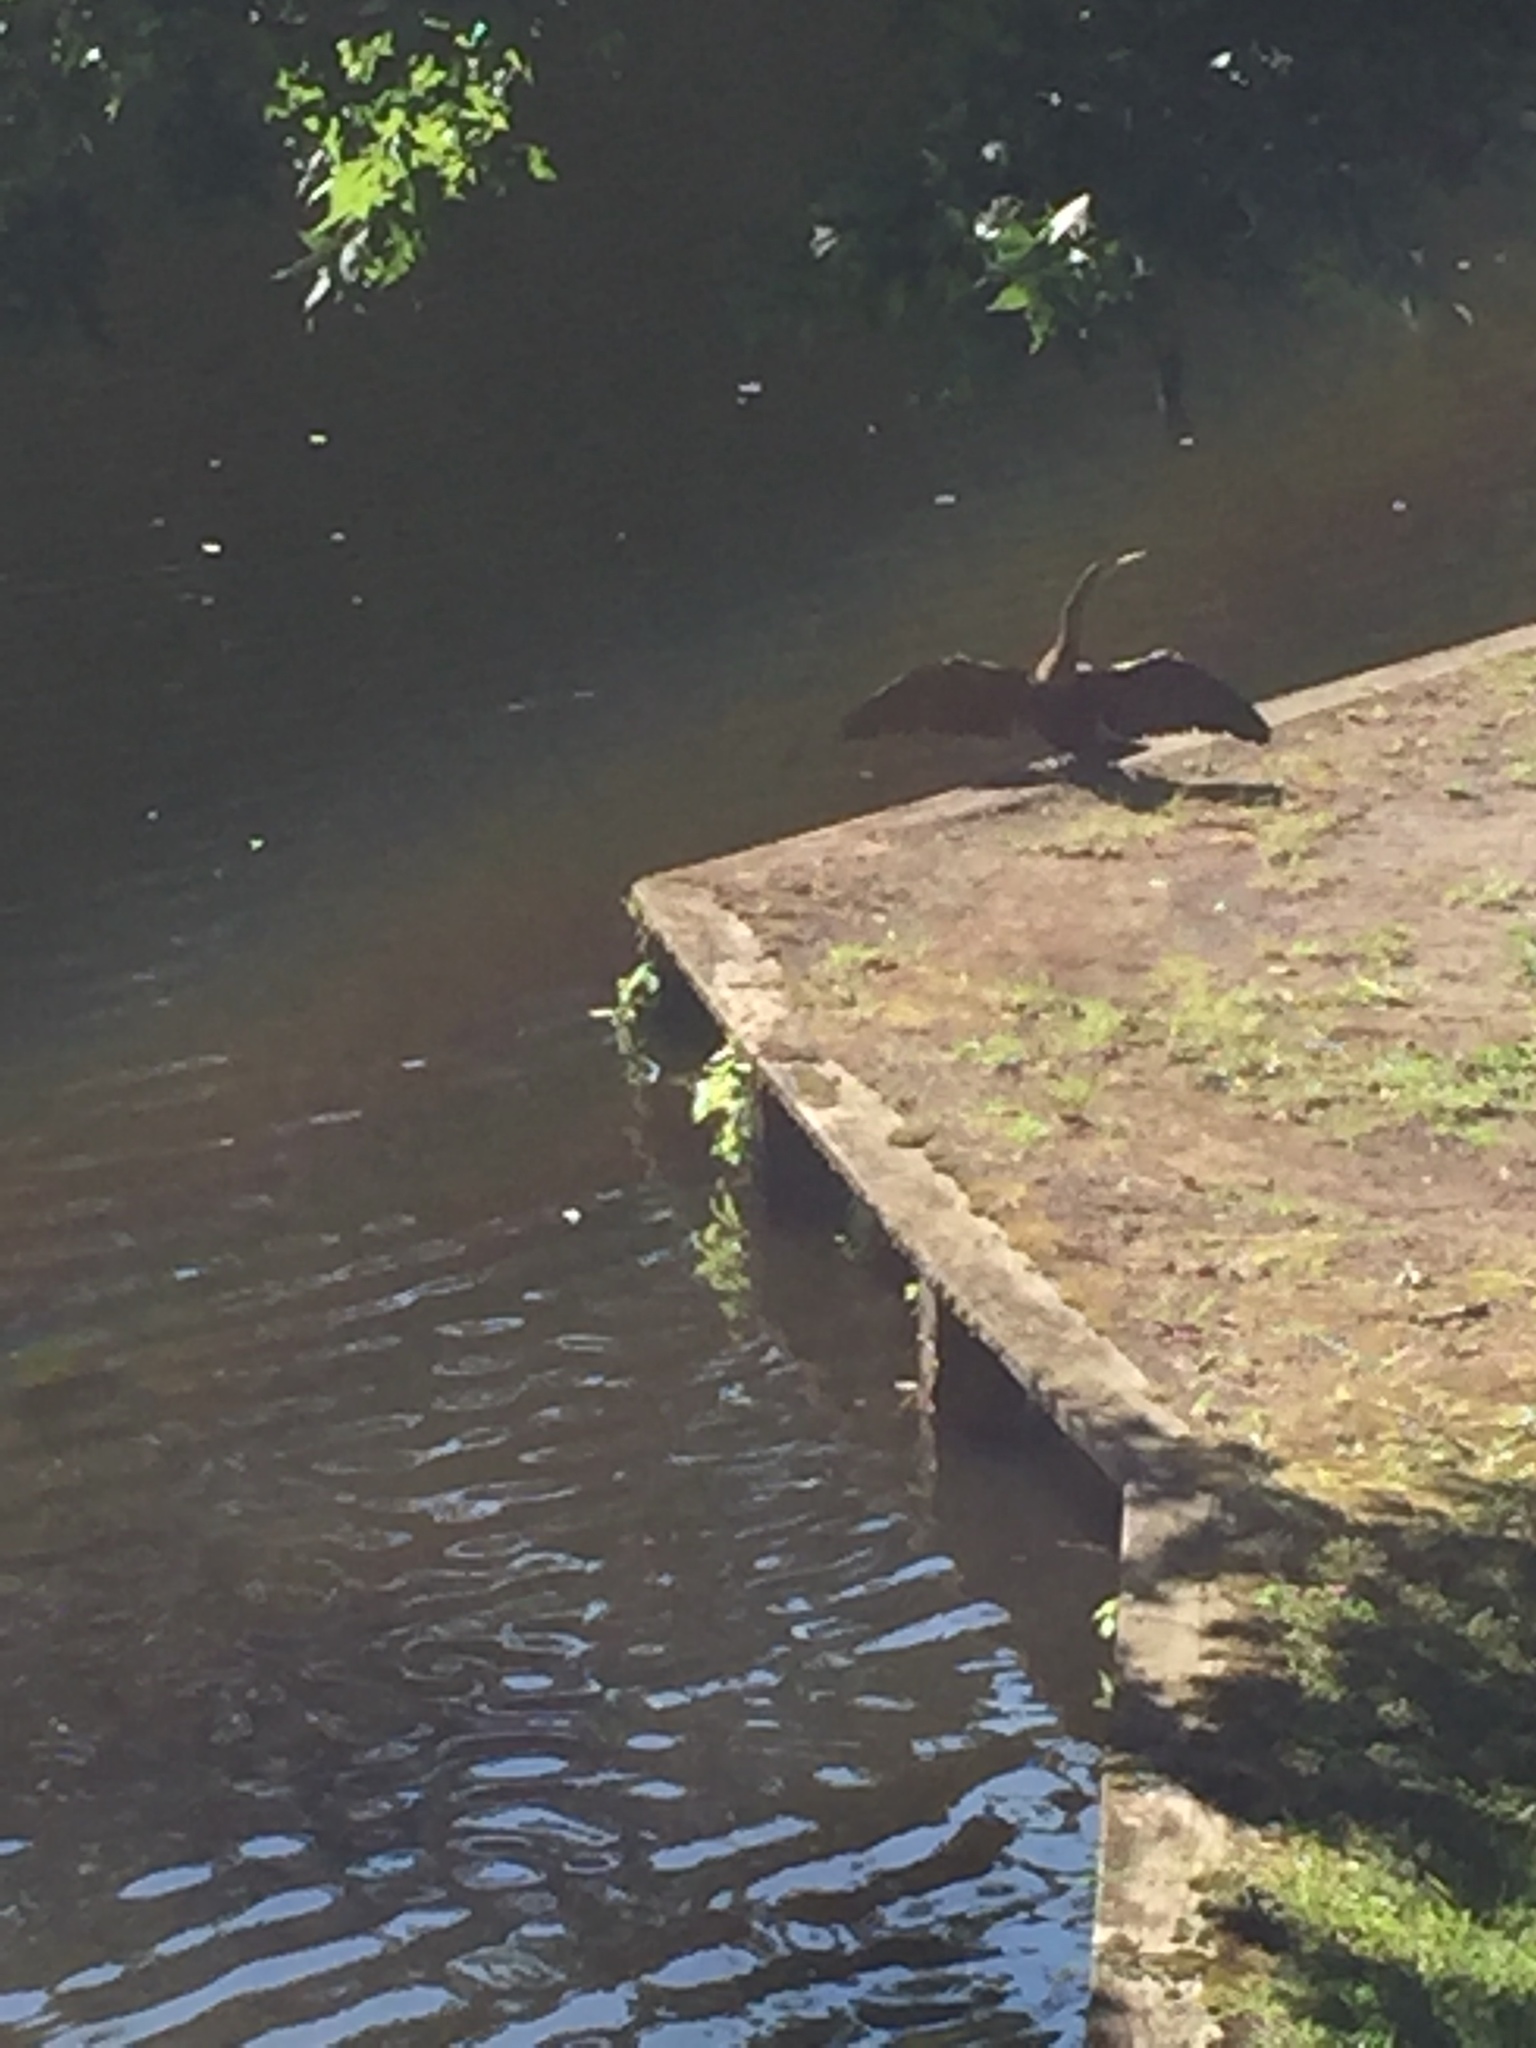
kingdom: Animalia
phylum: Chordata
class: Aves
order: Suliformes
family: Anhingidae
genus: Anhinga
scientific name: Anhinga anhinga
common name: Anhinga
